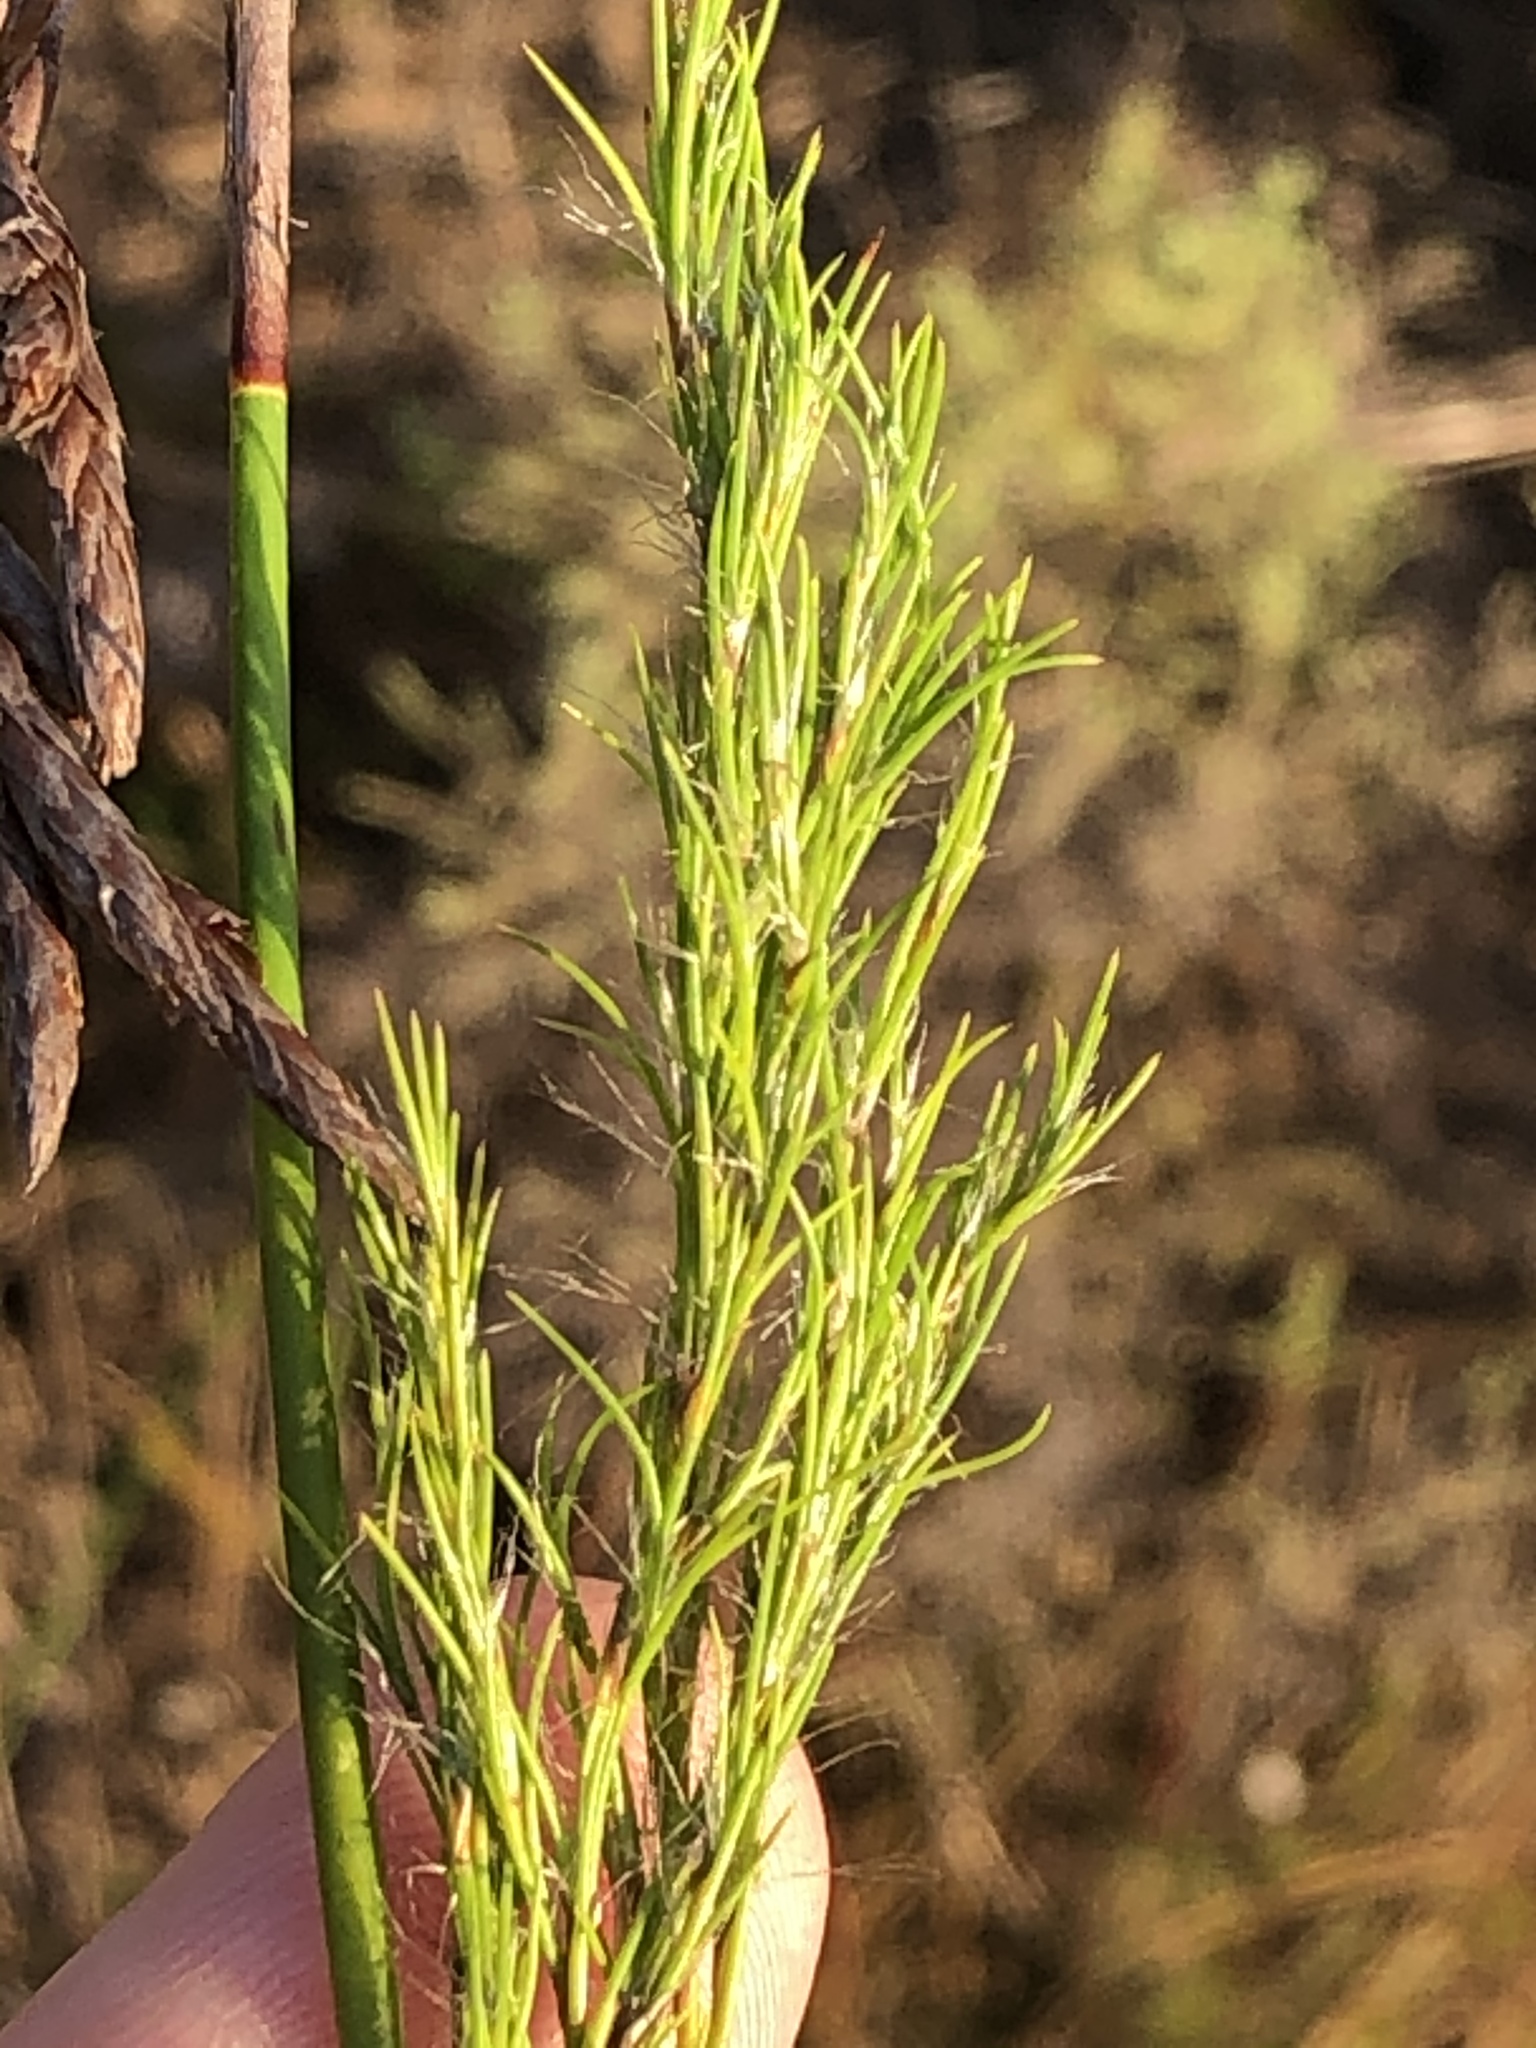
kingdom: Plantae
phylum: Tracheophyta
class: Liliopsida
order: Poales
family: Restionaceae
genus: Thamnochortus
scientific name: Thamnochortus glaber
